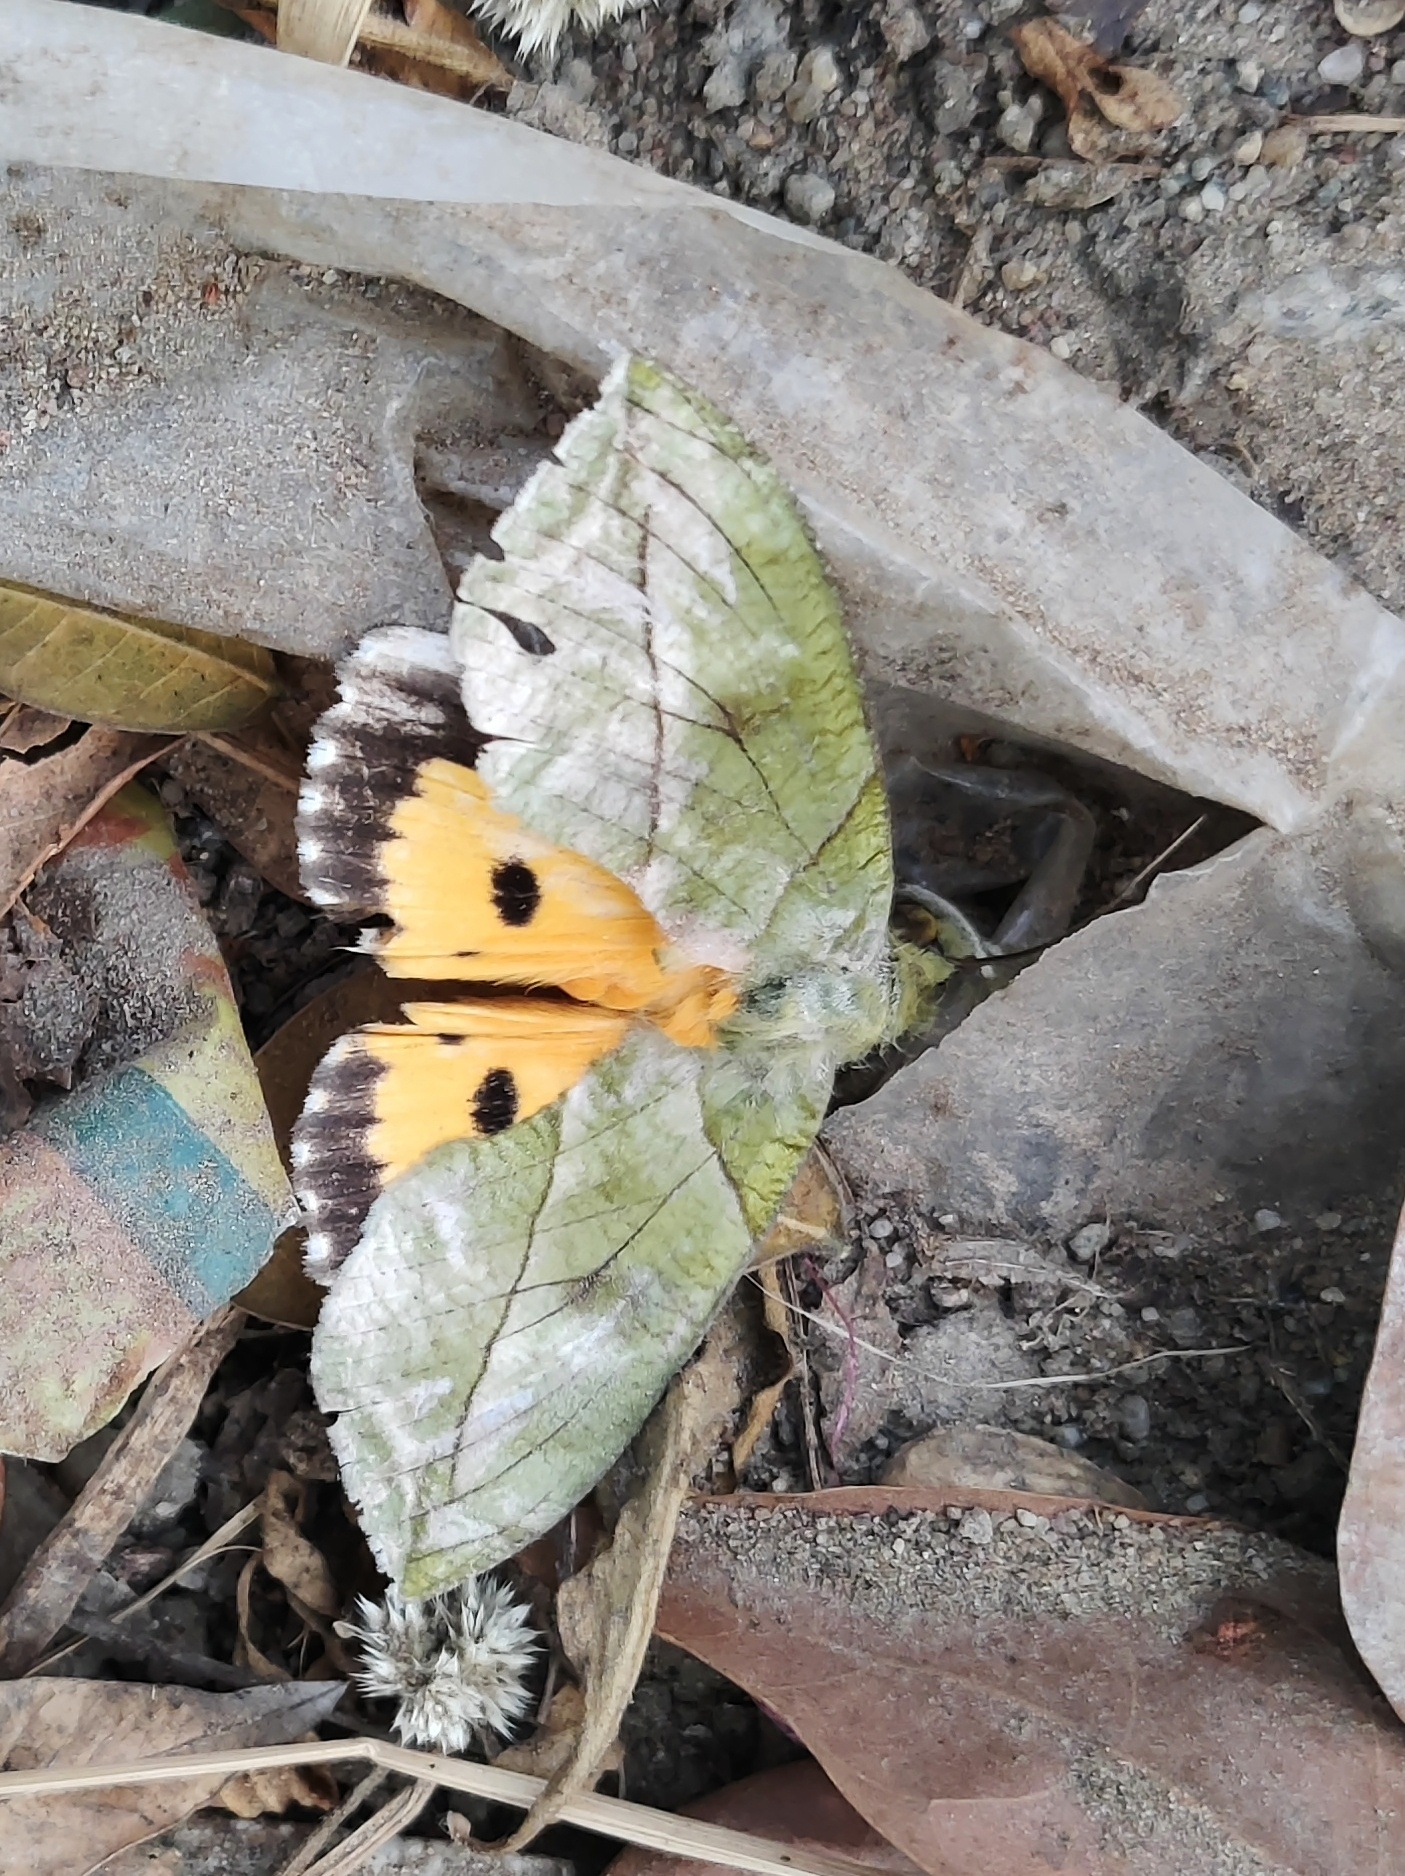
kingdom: Animalia
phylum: Arthropoda
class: Insecta
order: Lepidoptera
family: Erebidae
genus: Eudocima
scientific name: Eudocima hypermnestra
